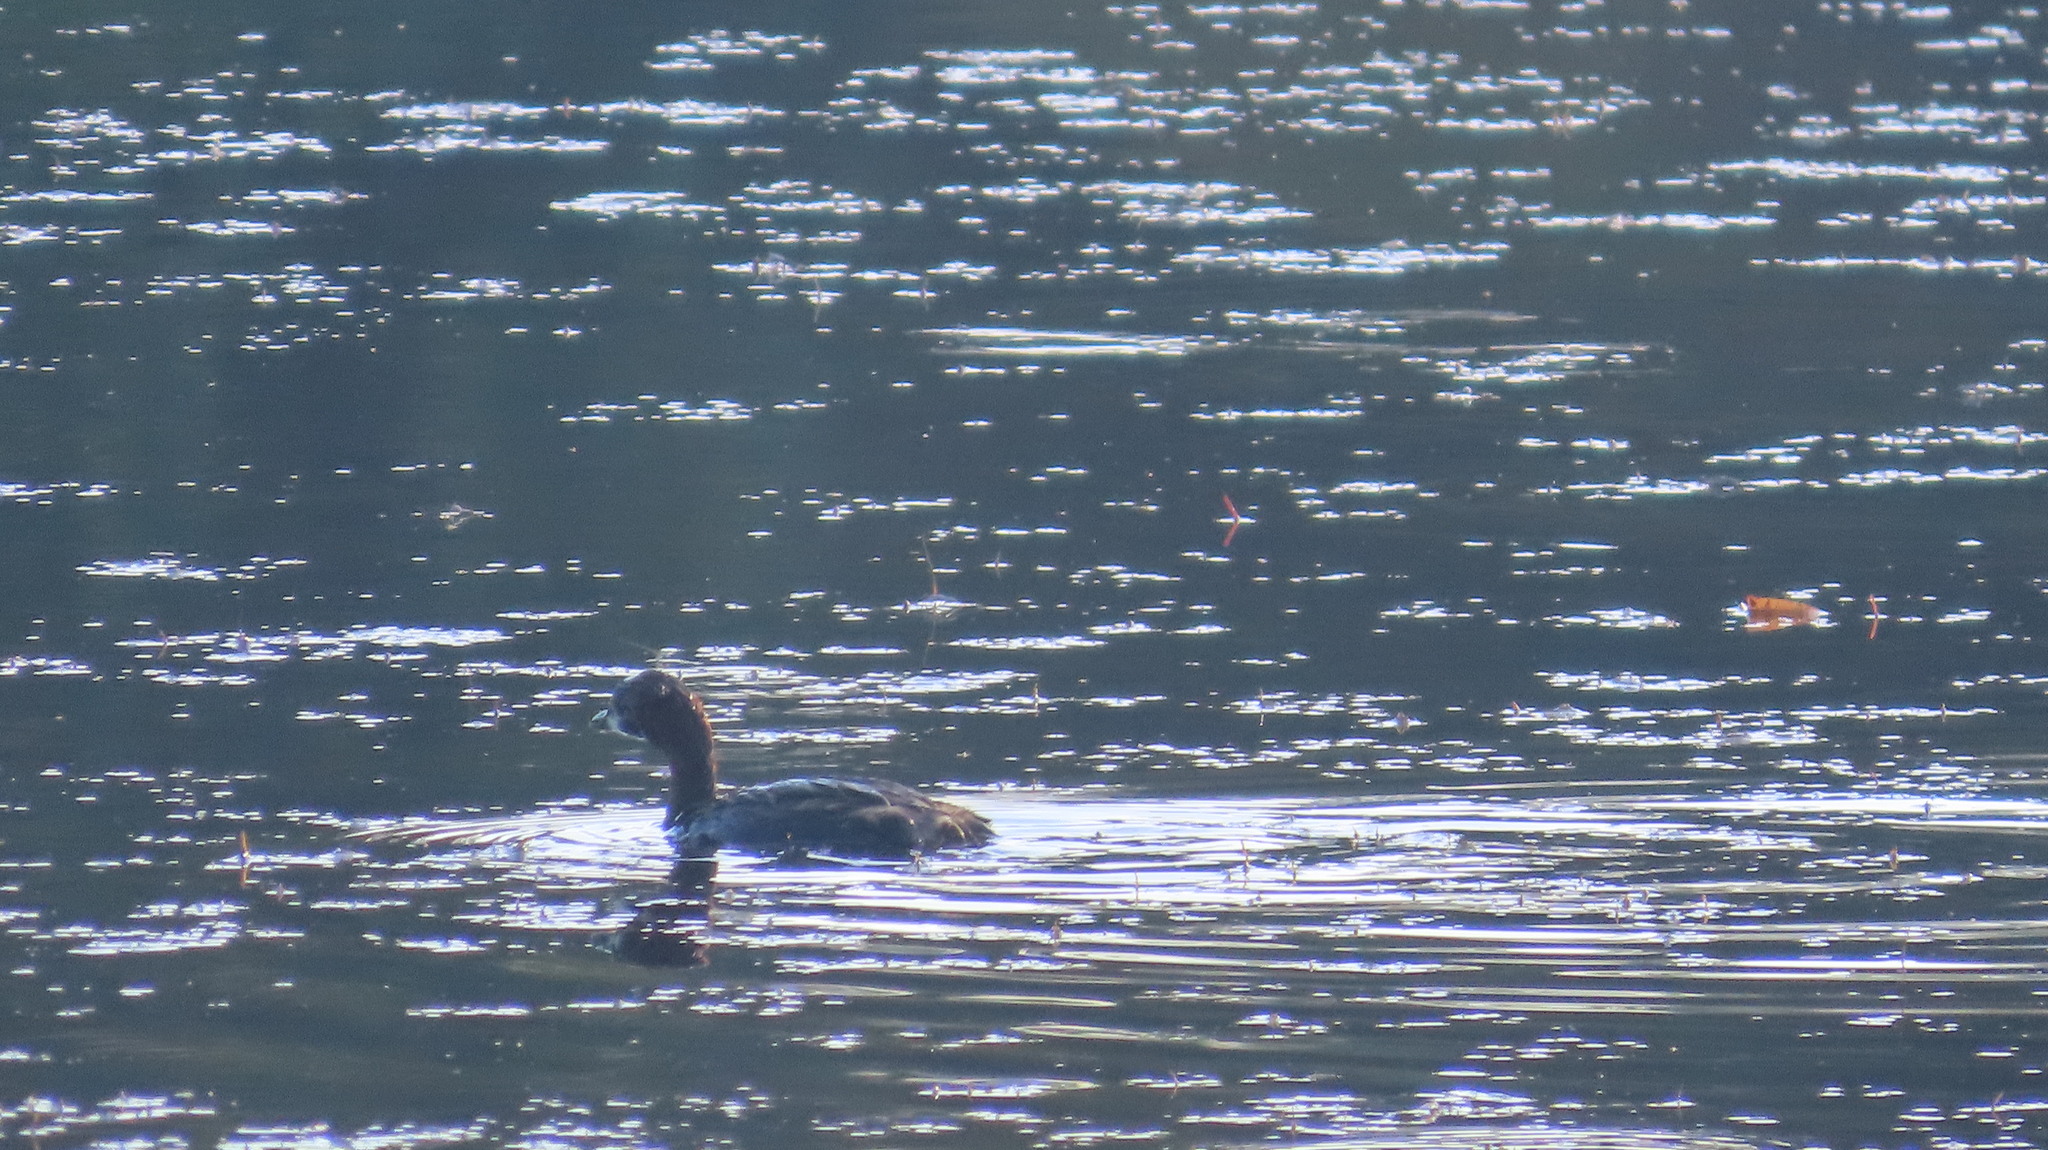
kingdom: Animalia
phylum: Chordata
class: Aves
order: Podicipediformes
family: Podicipedidae
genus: Tachybaptus
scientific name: Tachybaptus ruficollis
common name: Little grebe
